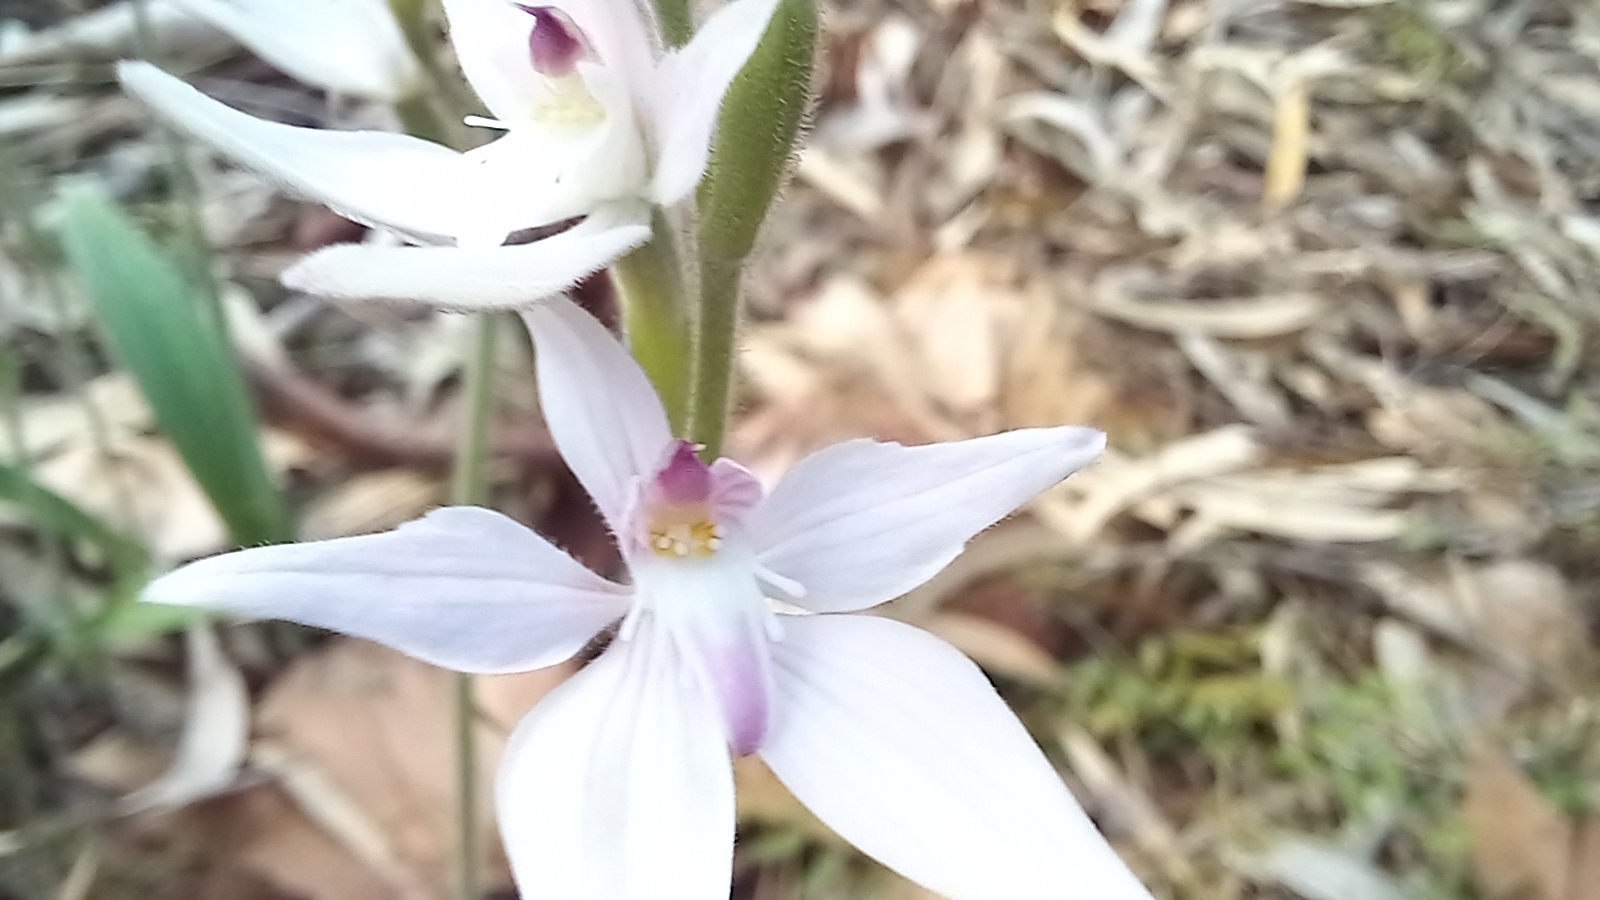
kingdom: Plantae
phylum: Tracheophyta
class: Liliopsida
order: Asparagales
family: Orchidaceae
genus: Caladenia
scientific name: Caladenia latifolia
